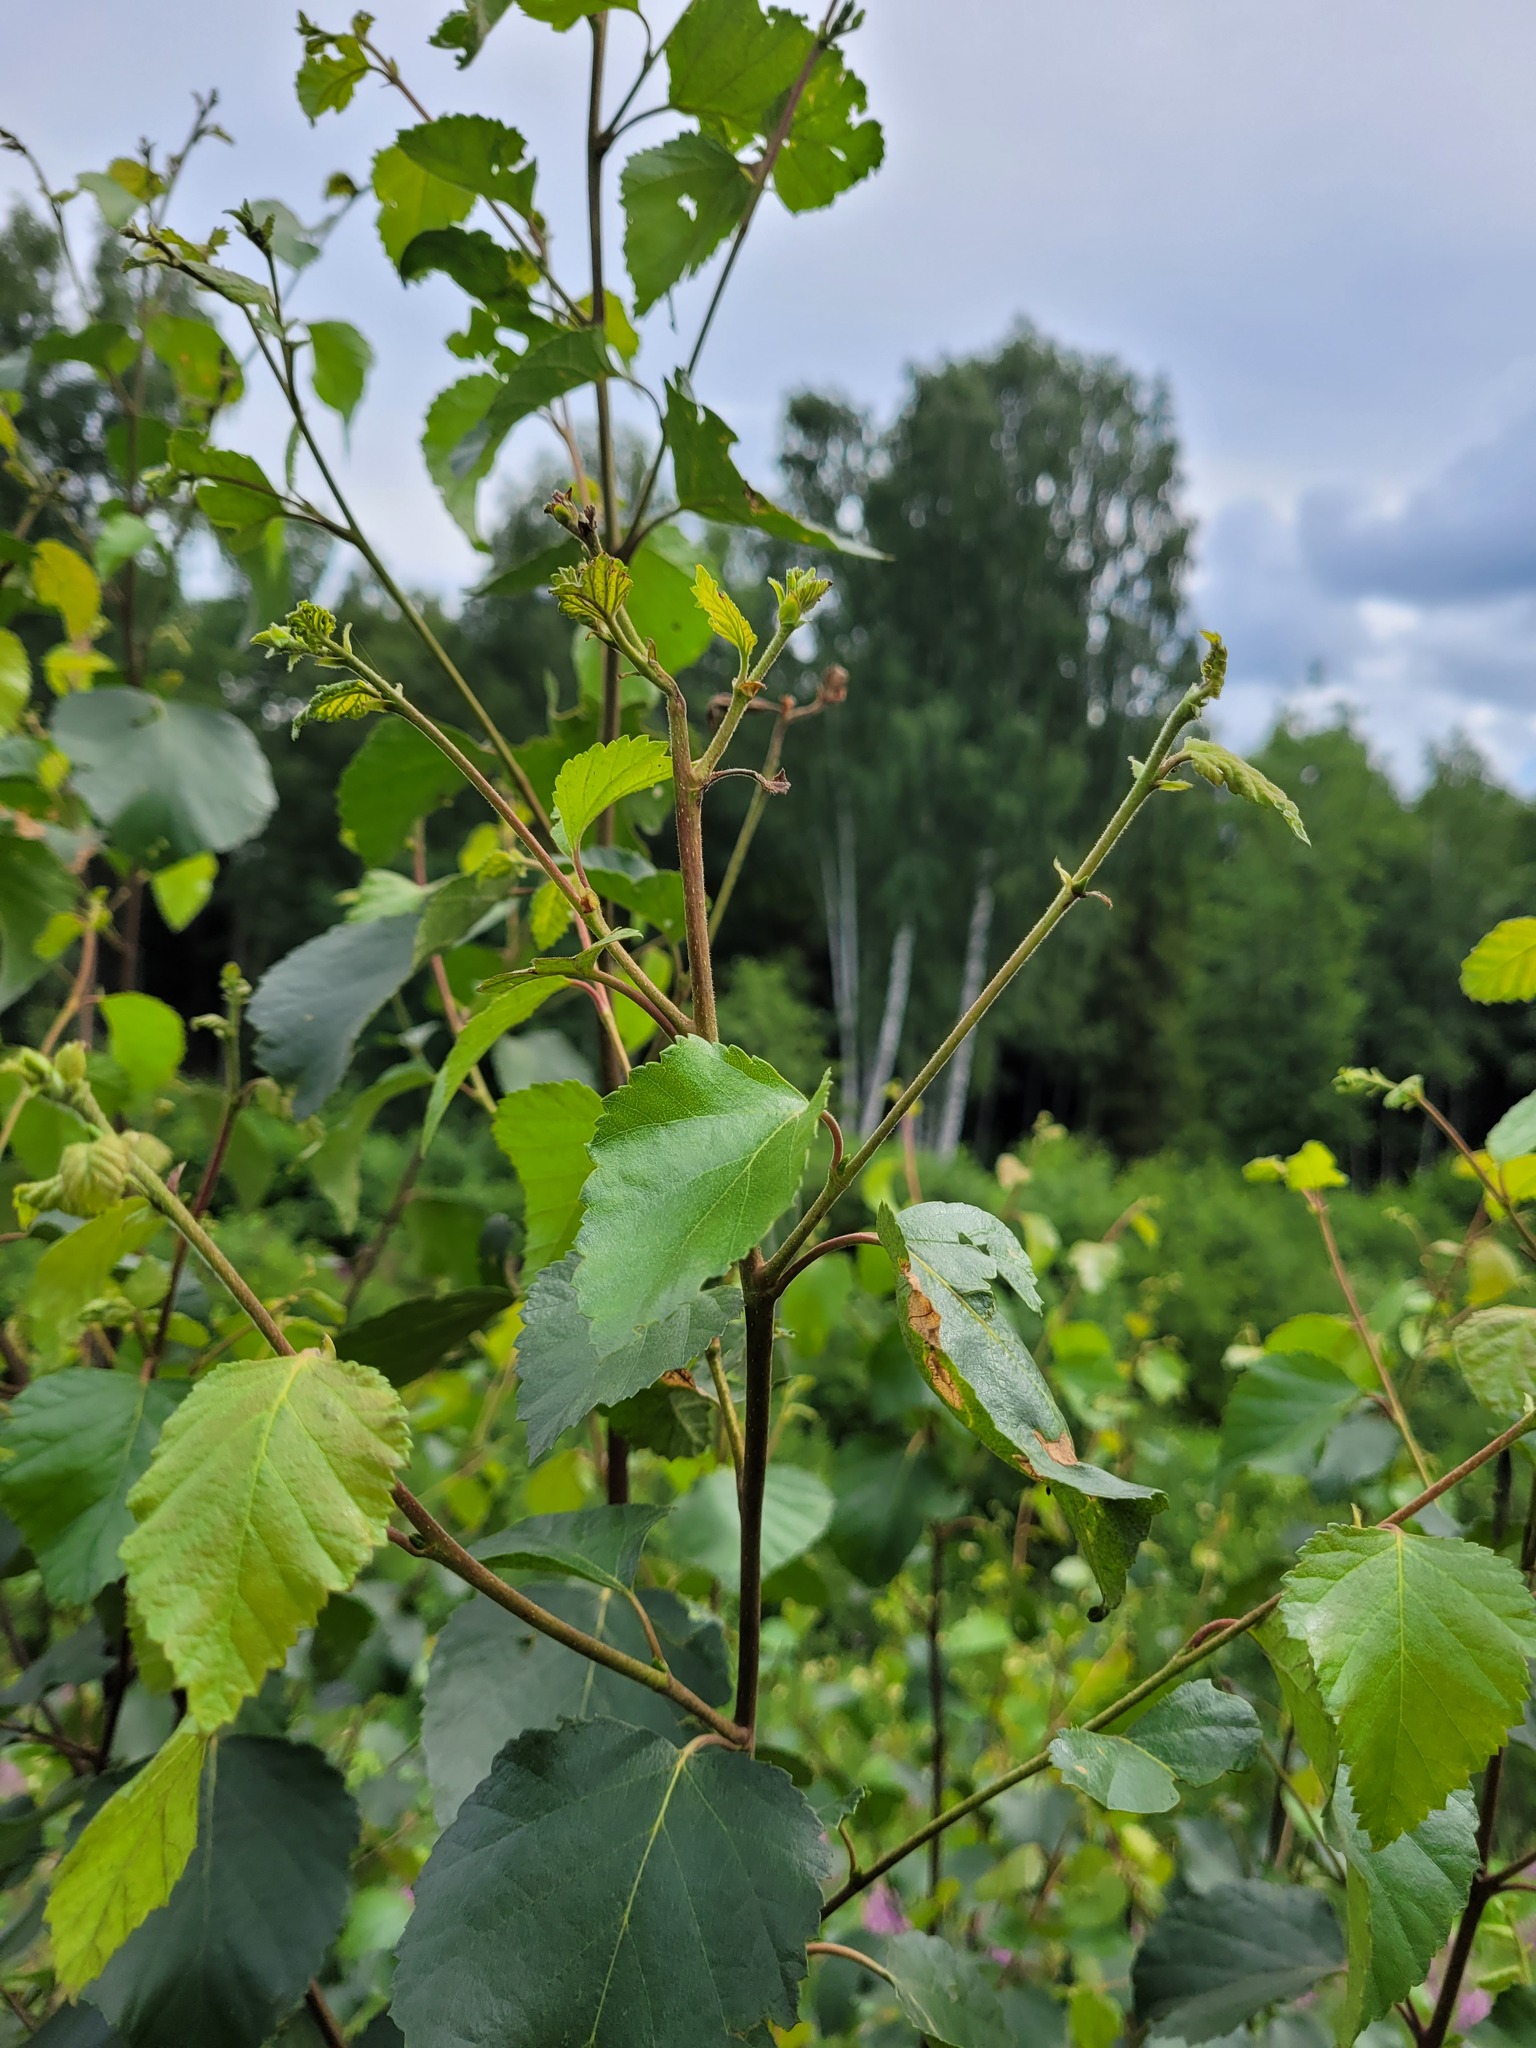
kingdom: Plantae
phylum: Tracheophyta
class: Magnoliopsida
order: Fagales
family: Betulaceae
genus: Betula
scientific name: Betula pubescens
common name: Downy birch
